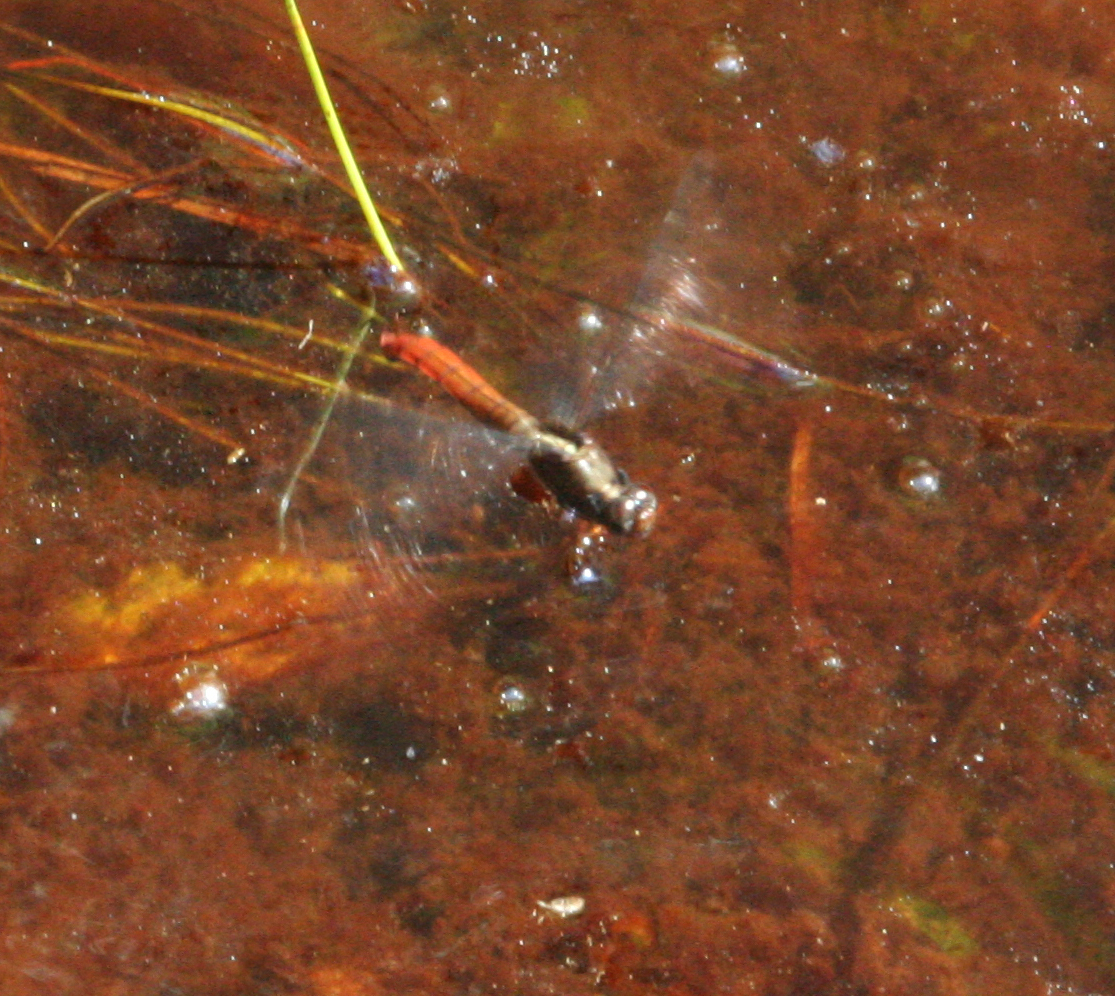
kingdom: Animalia
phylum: Arthropoda
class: Insecta
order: Odonata
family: Libellulidae
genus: Orthetrum
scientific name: Orthetrum chrysis
